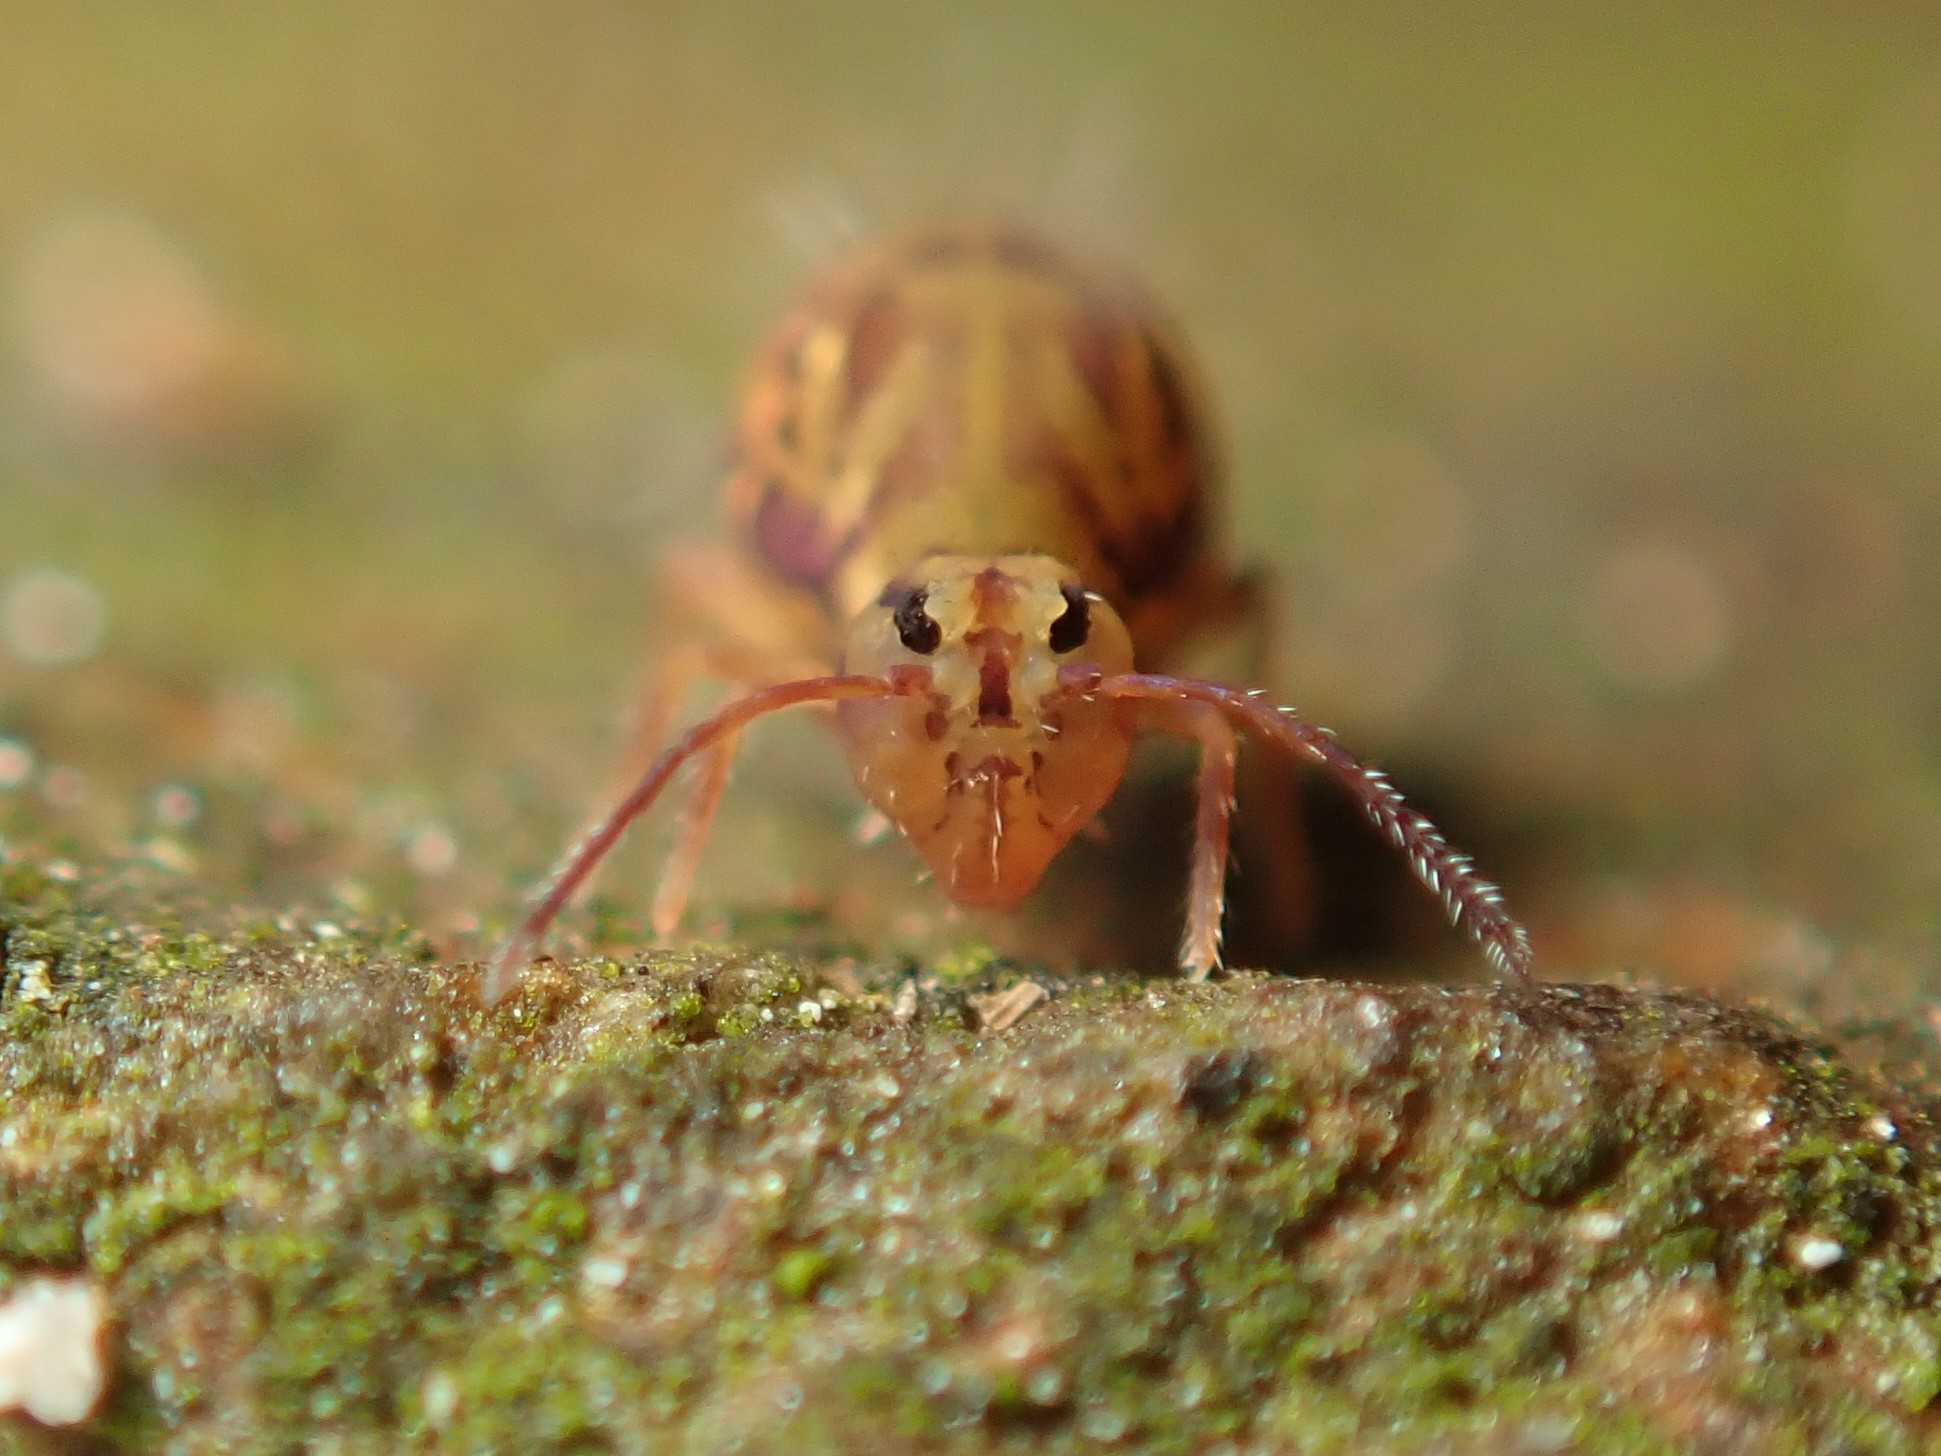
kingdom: Animalia
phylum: Arthropoda
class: Collembola
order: Symphypleona
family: Dicyrtomidae
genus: Dicyrtomina
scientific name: Dicyrtomina ornata
